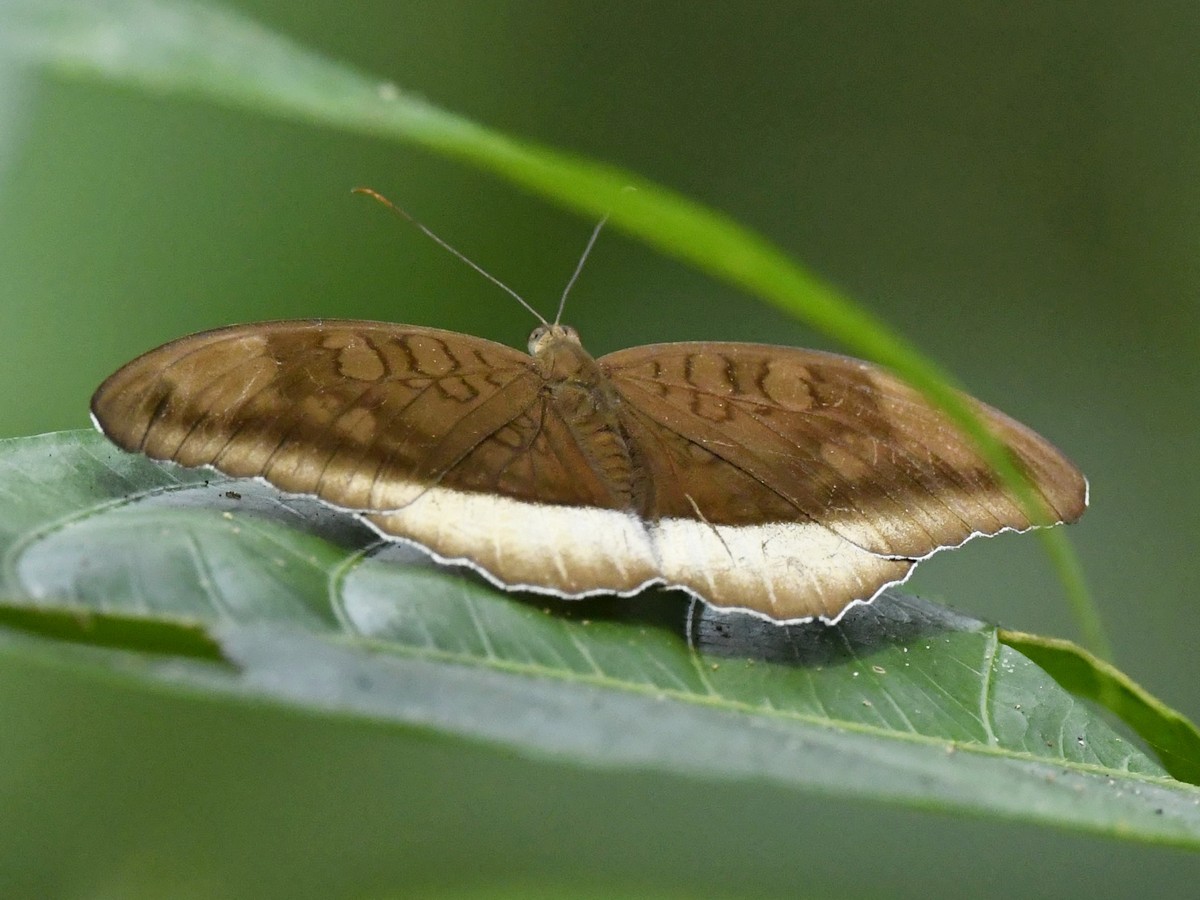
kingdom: Animalia
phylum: Arthropoda
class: Insecta
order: Lepidoptera
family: Nymphalidae
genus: Tanaecia
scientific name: Tanaecia lepidea
